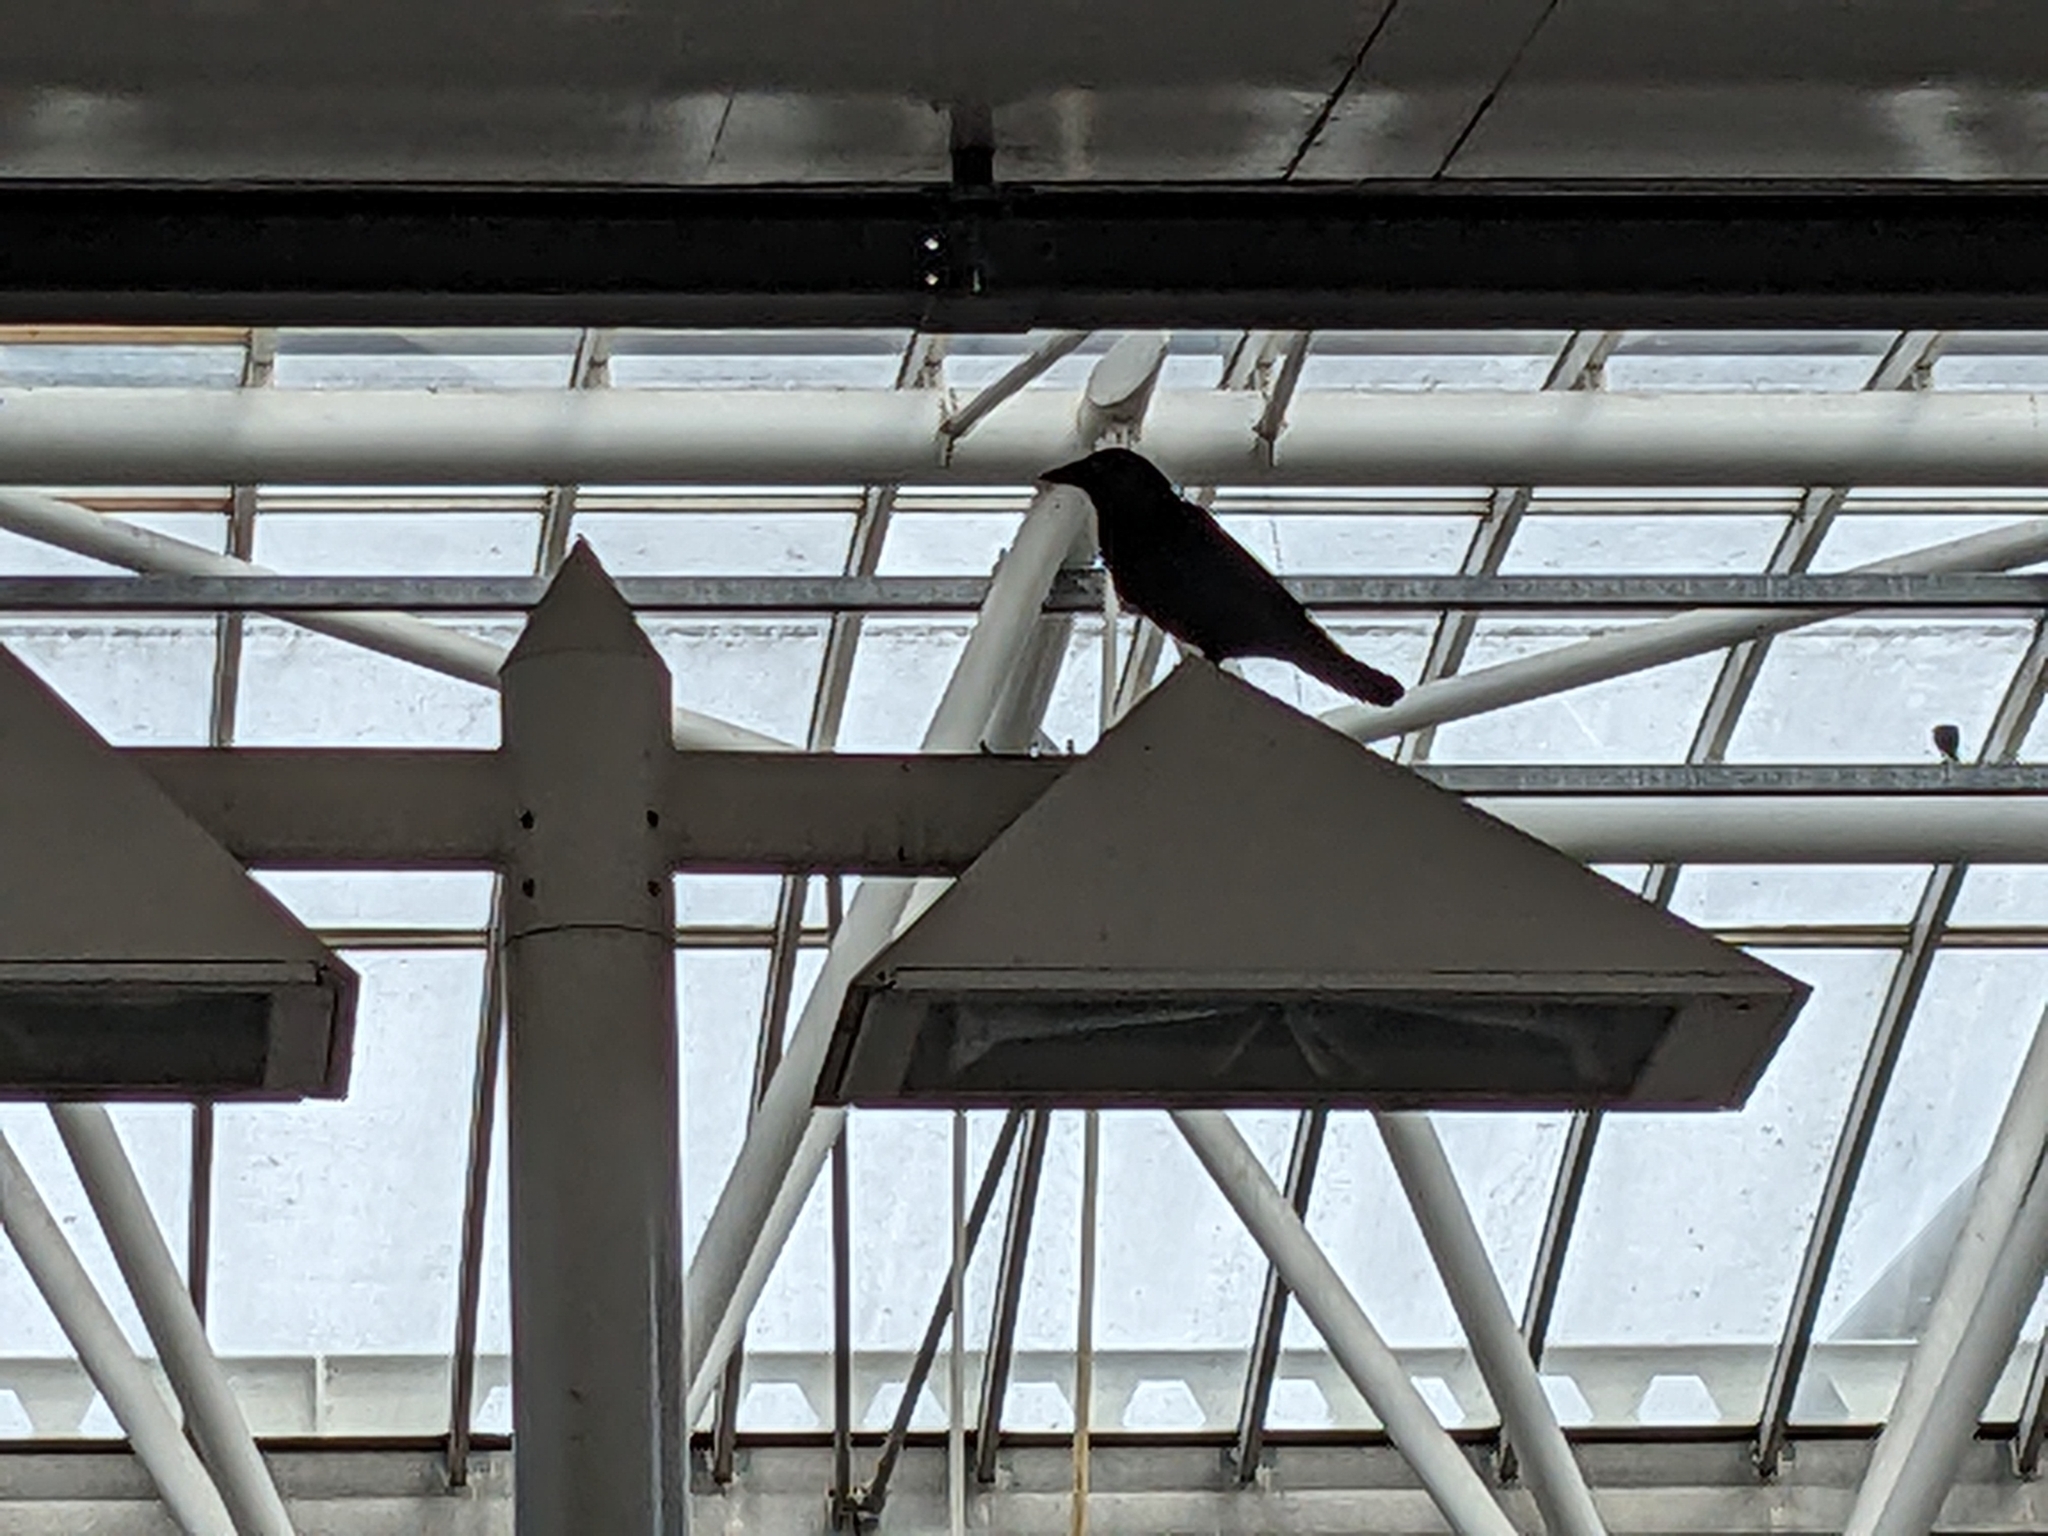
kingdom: Animalia
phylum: Chordata
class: Aves
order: Passeriformes
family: Corvidae
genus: Corvus
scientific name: Corvus corone
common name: Carrion crow
